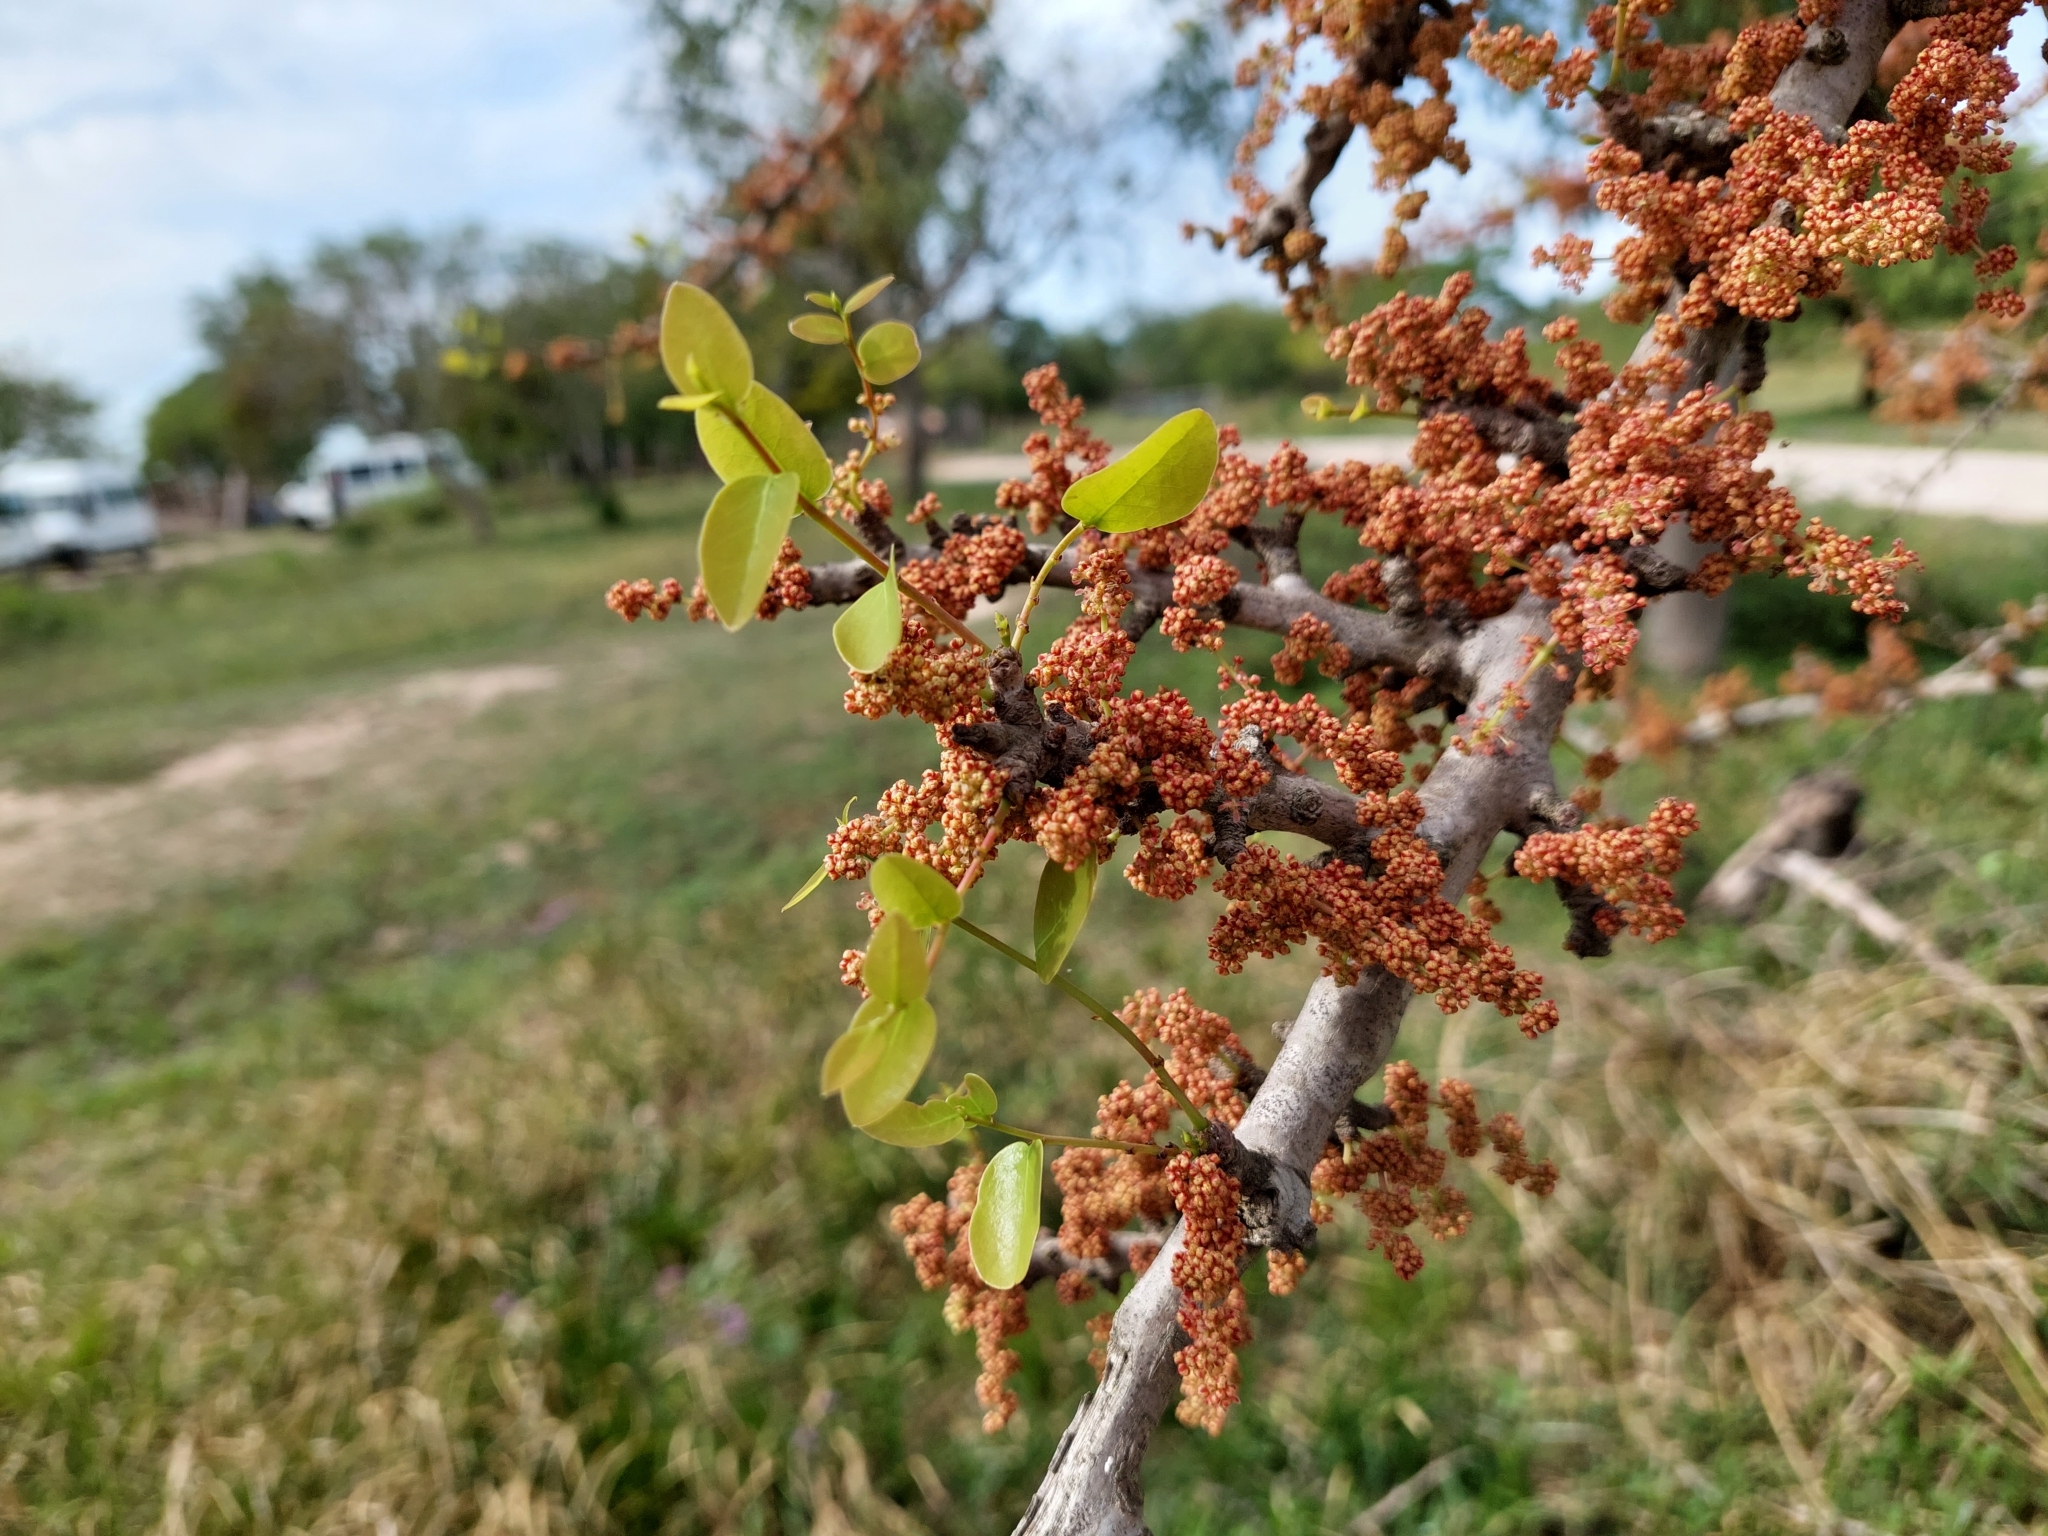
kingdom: Plantae
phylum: Tracheophyta
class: Magnoliopsida
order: Malpighiales
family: Phyllanthaceae
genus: Phyllanthus
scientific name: Phyllanthus chacoensis
